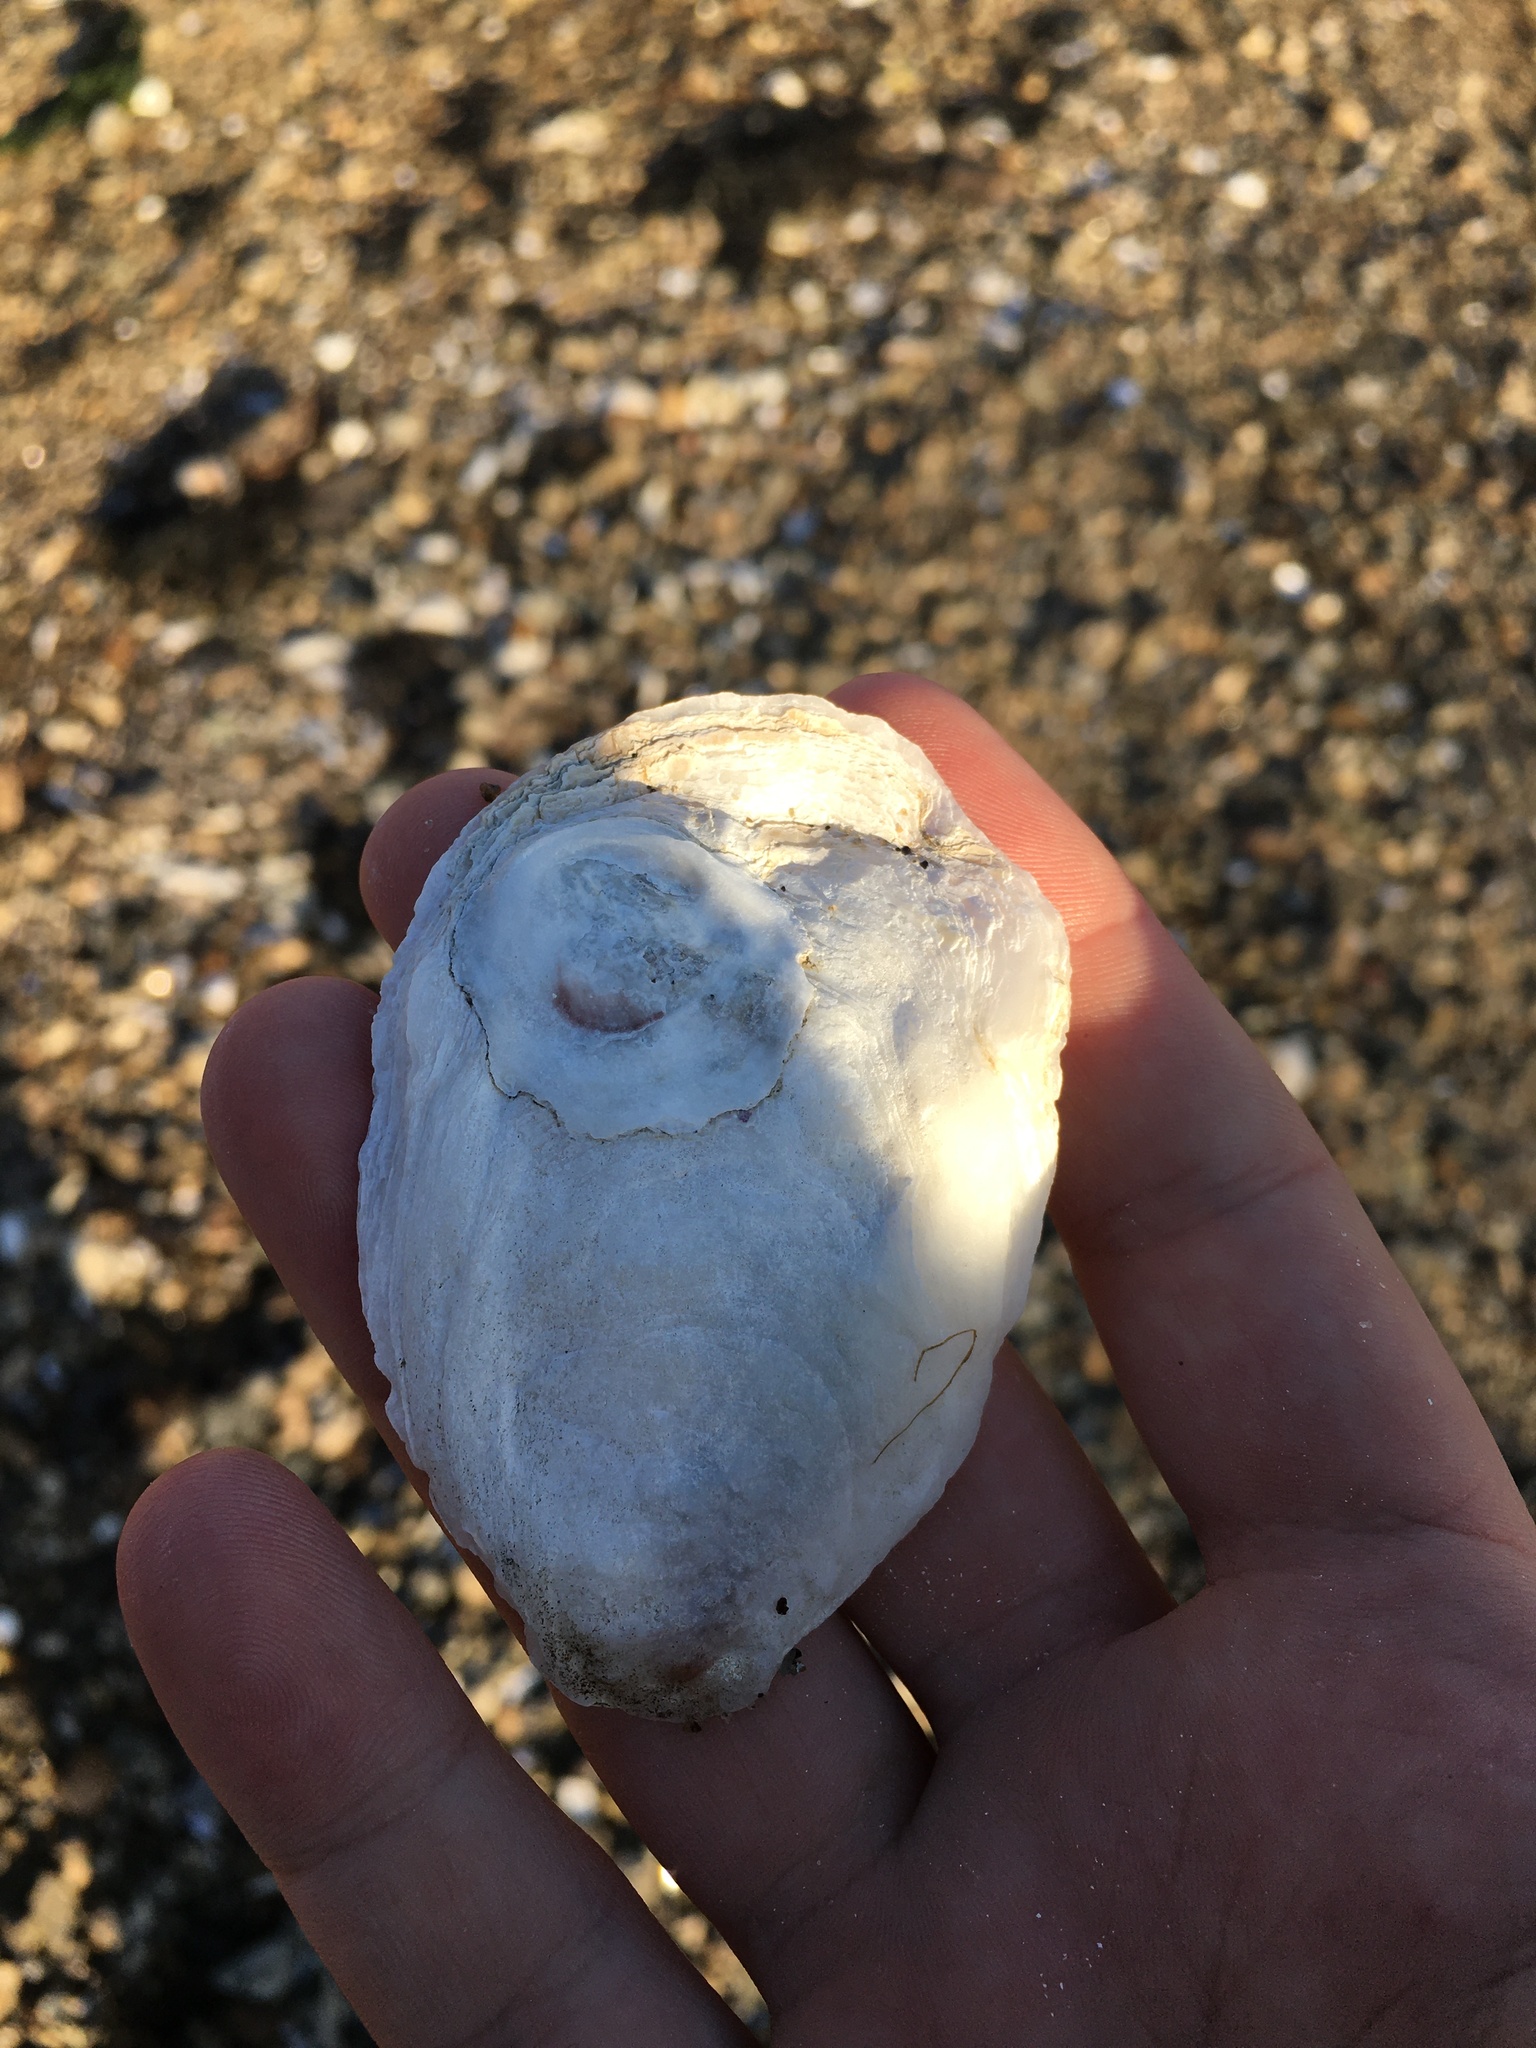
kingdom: Animalia
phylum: Mollusca
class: Bivalvia
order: Ostreida
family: Ostreidae
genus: Crassostrea
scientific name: Crassostrea virginica
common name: American oyster
